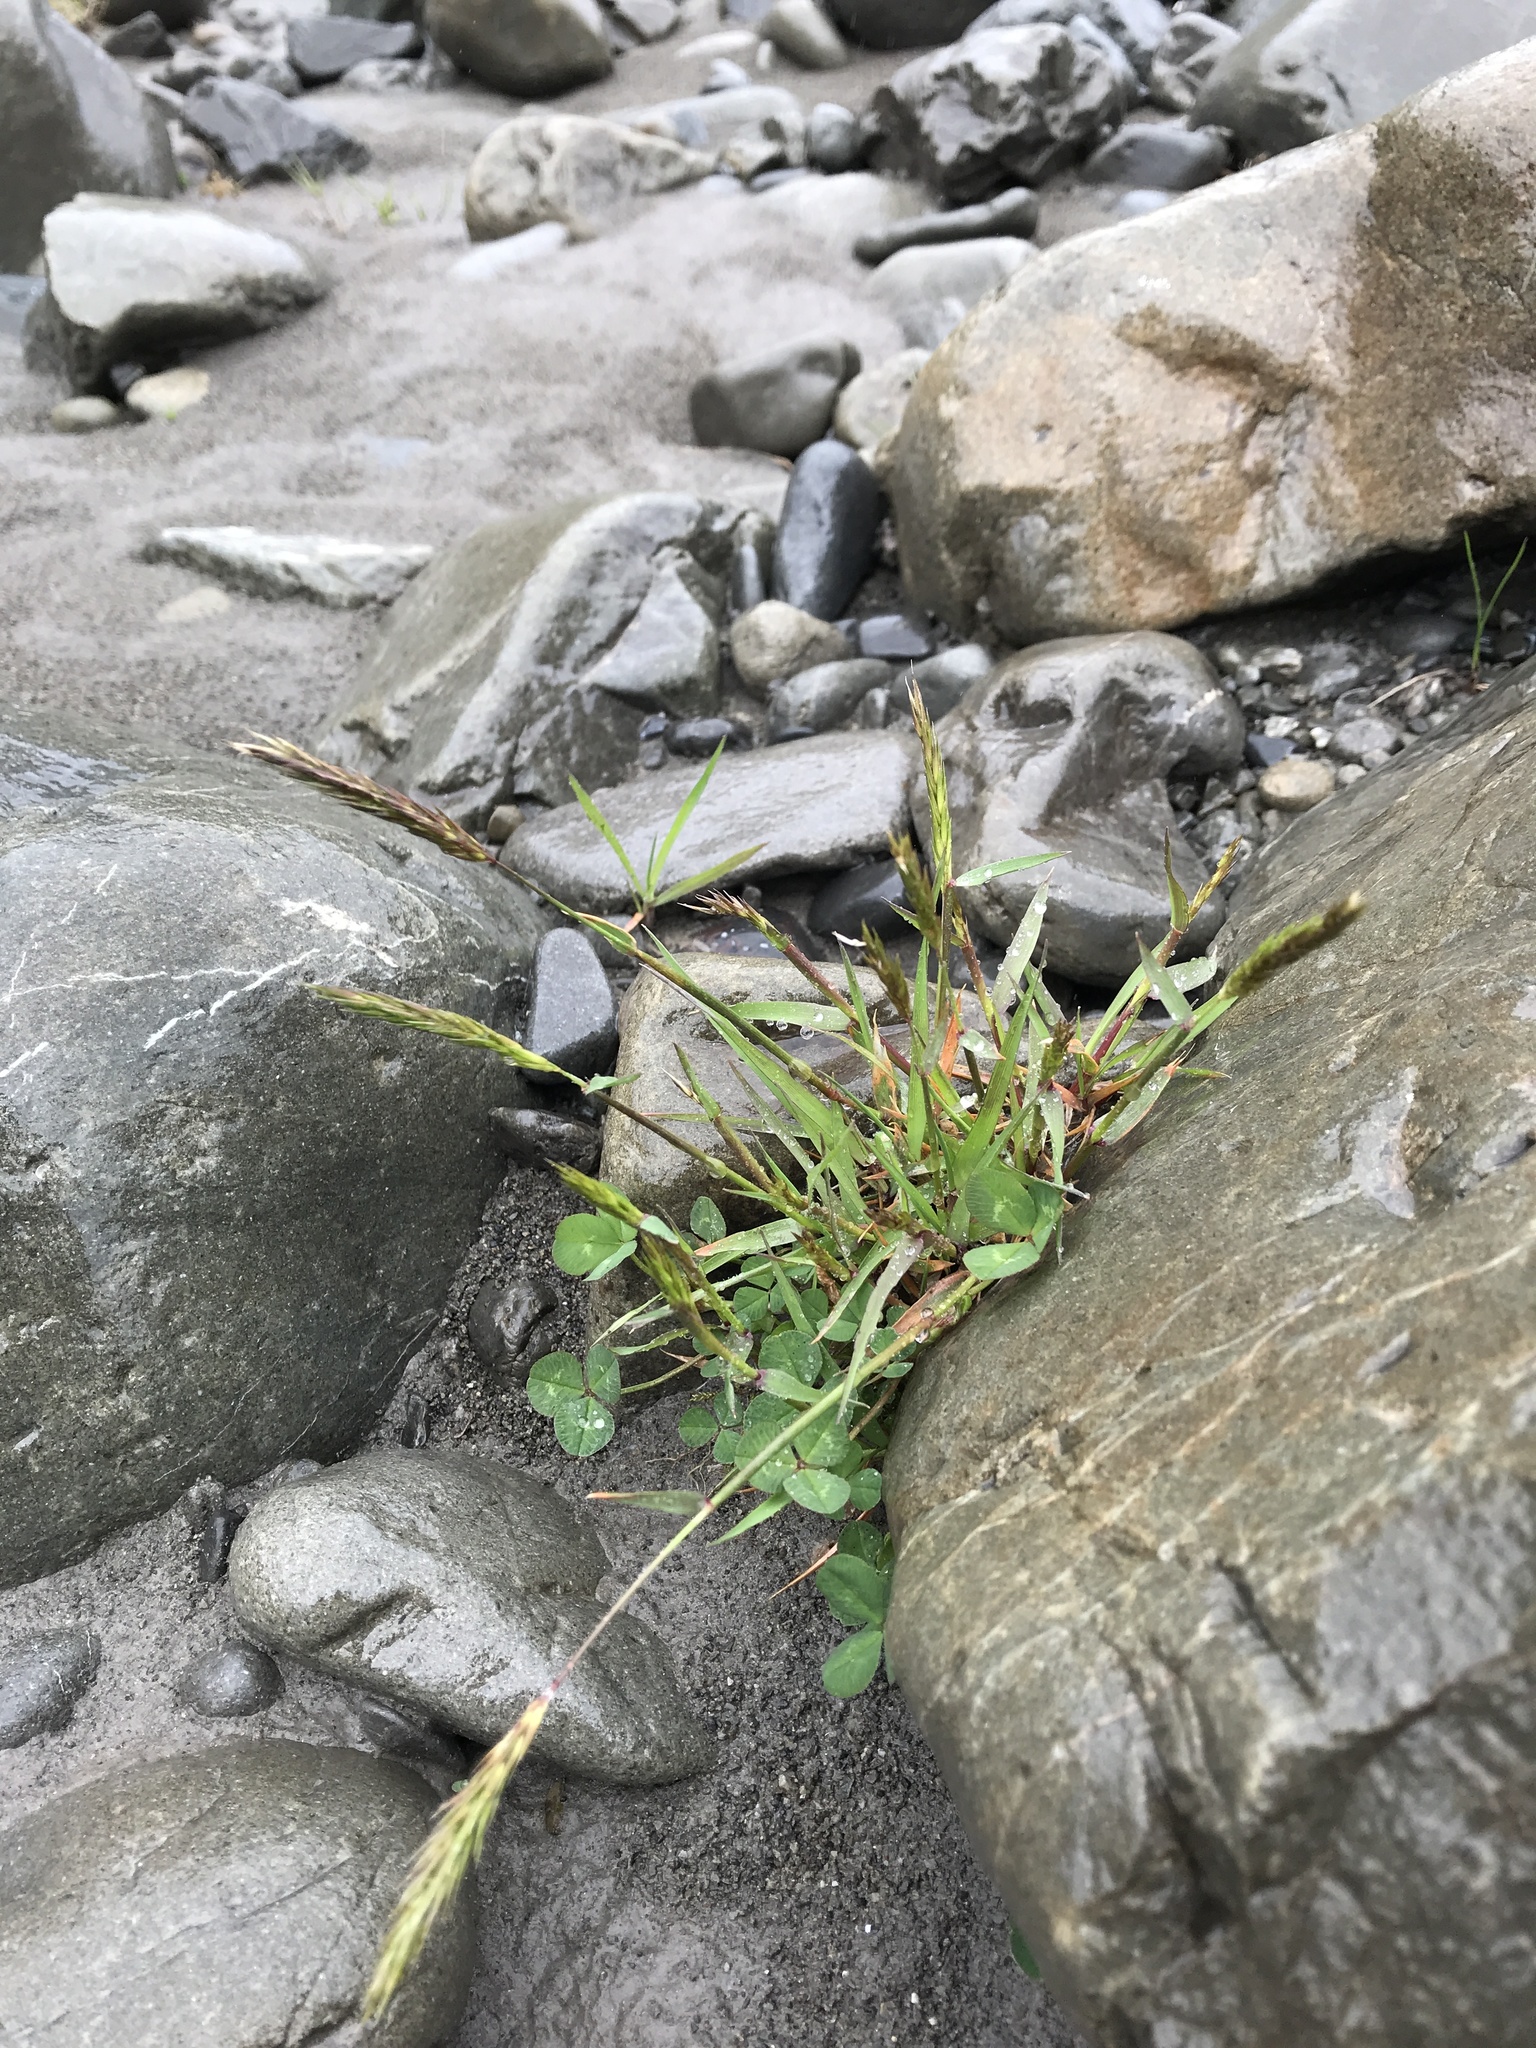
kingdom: Plantae
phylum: Tracheophyta
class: Liliopsida
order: Poales
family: Poaceae
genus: Anthoxanthum
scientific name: Anthoxanthum odoratum
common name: Sweet vernalgrass
